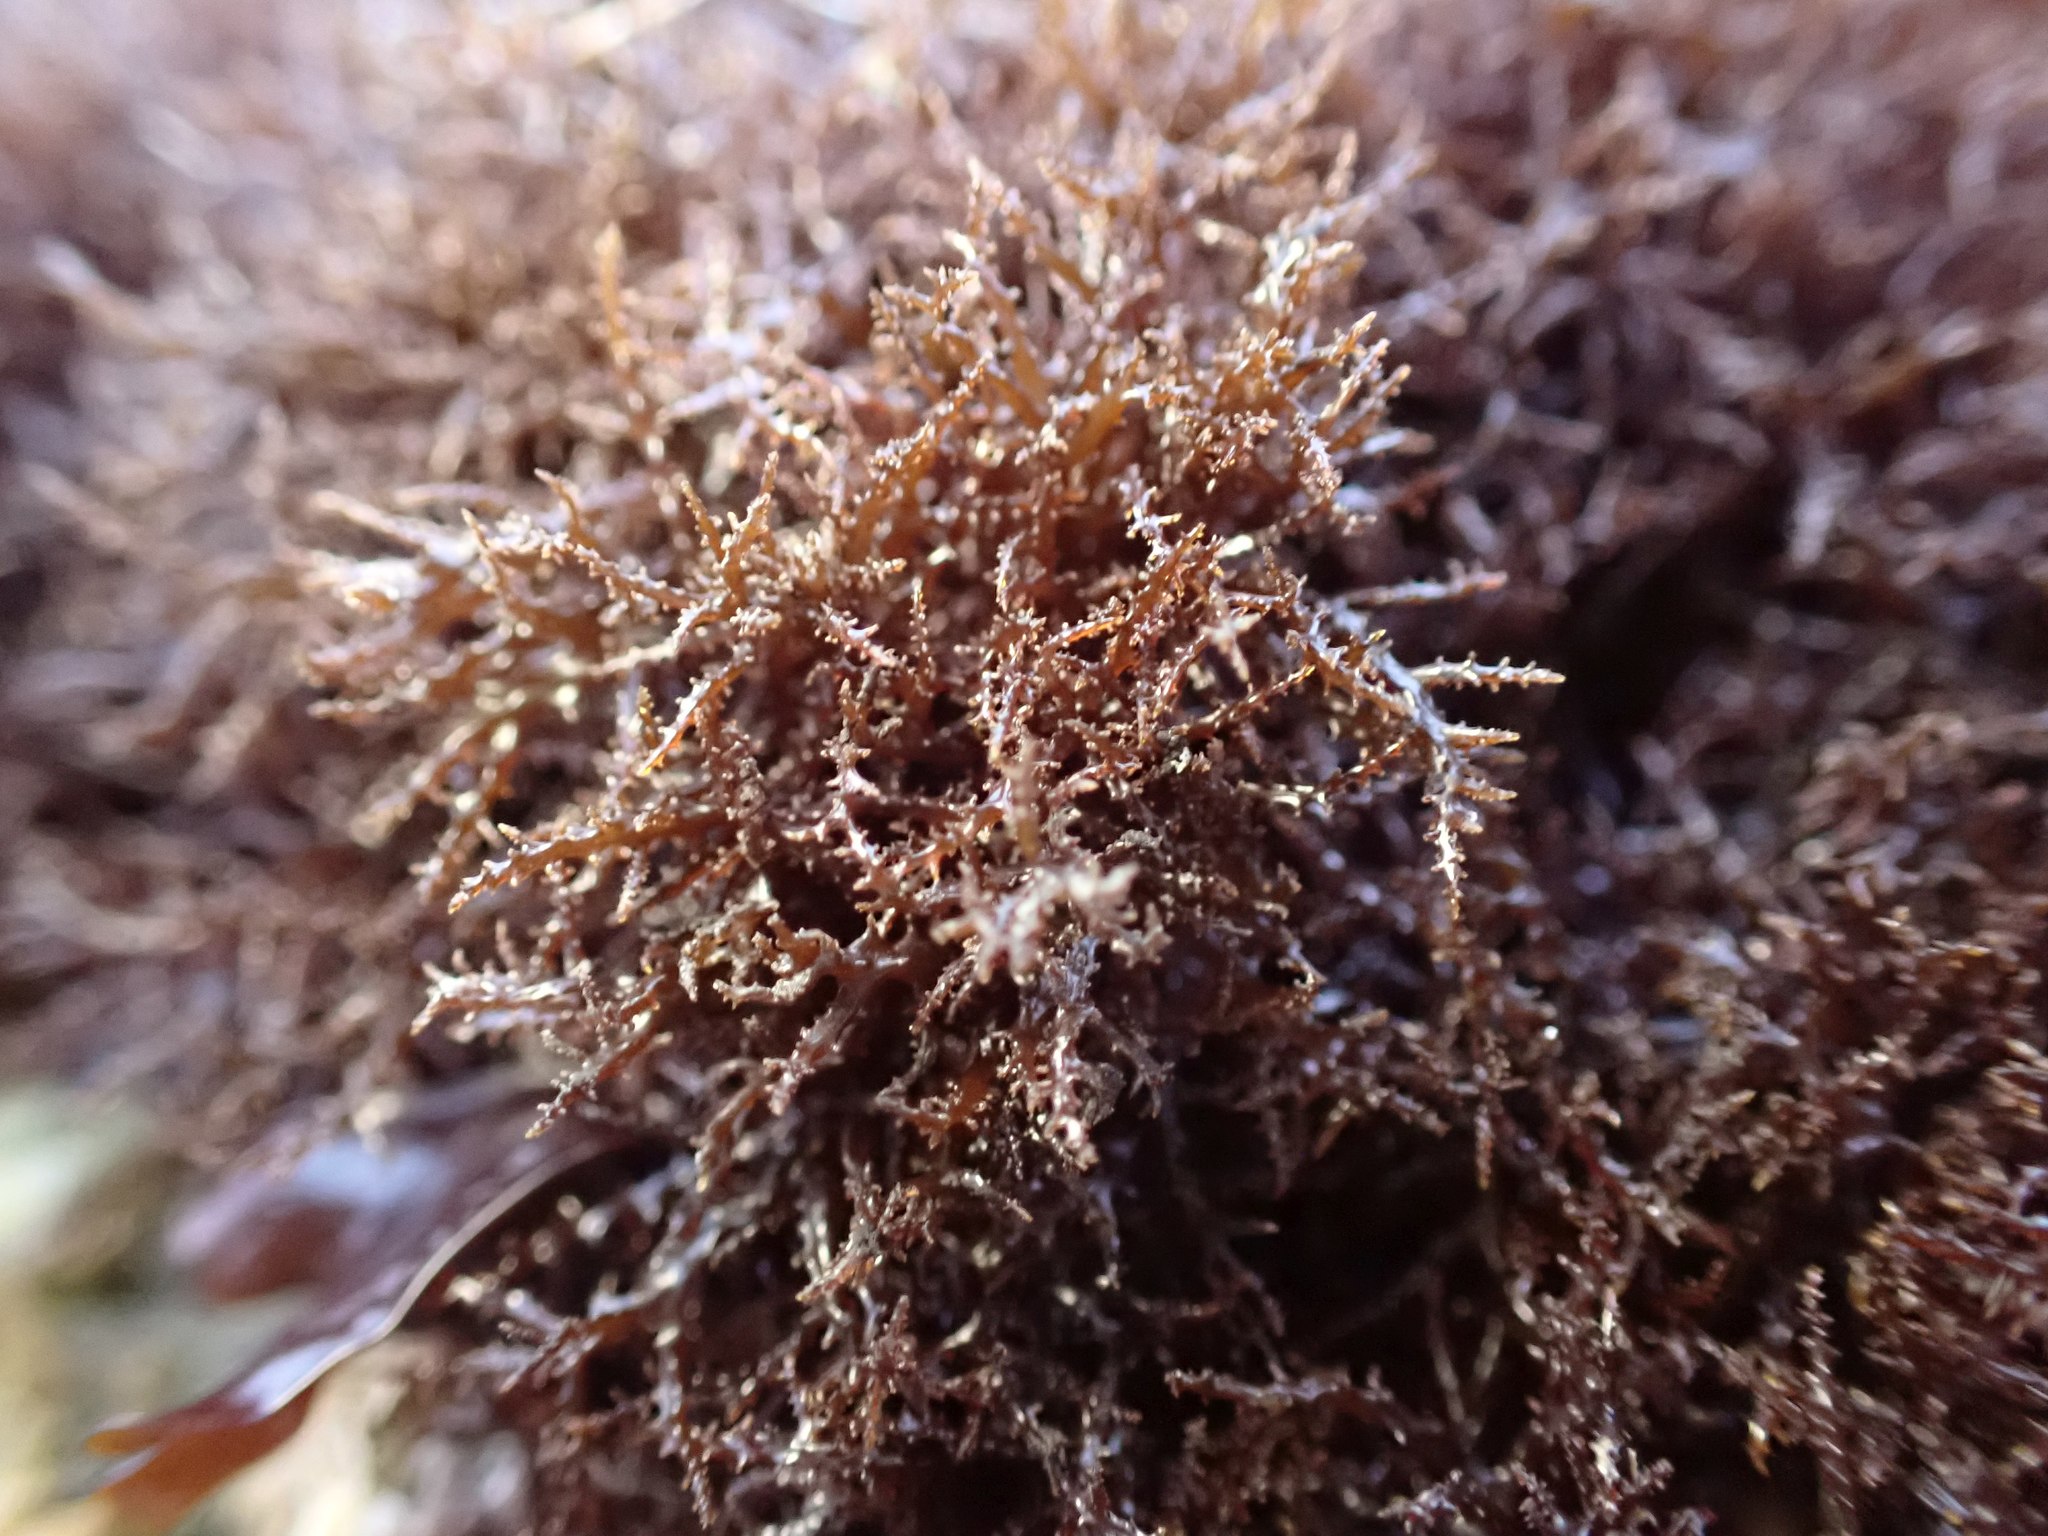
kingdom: Plantae
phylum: Rhodophyta
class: Florideophyceae
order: Gigartinales
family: Endocladiaceae
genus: Endocladia
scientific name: Endocladia muricata
